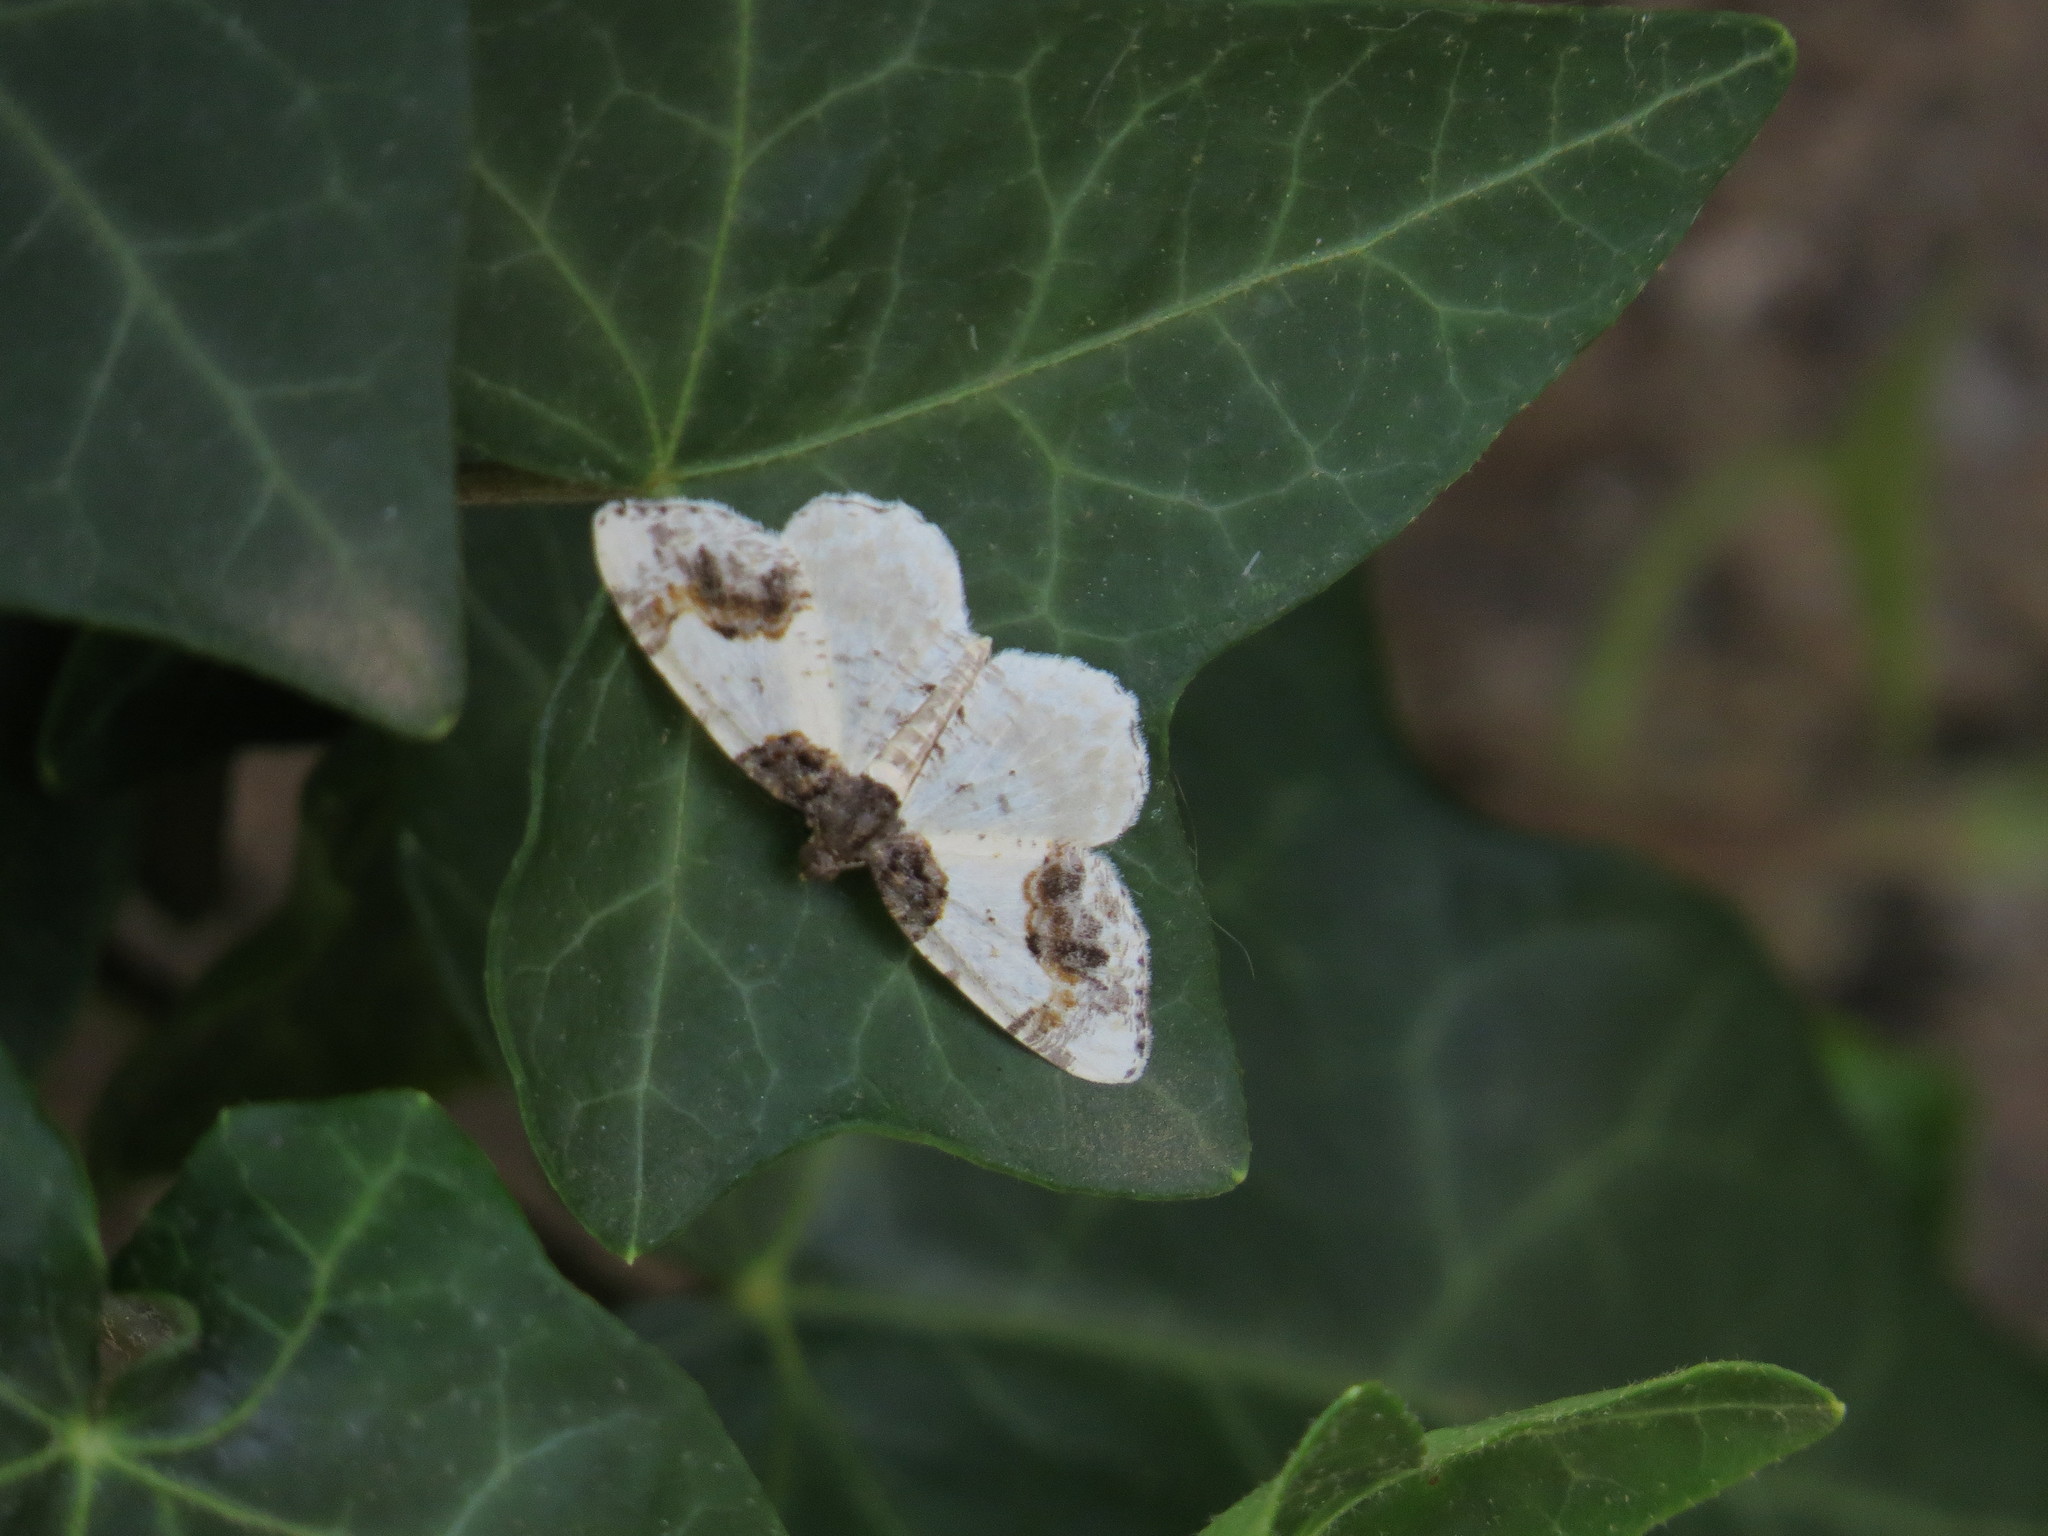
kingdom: Animalia
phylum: Arthropoda
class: Insecta
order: Lepidoptera
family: Geometridae
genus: Ligdia
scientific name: Ligdia adustata
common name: Scorched carpet
